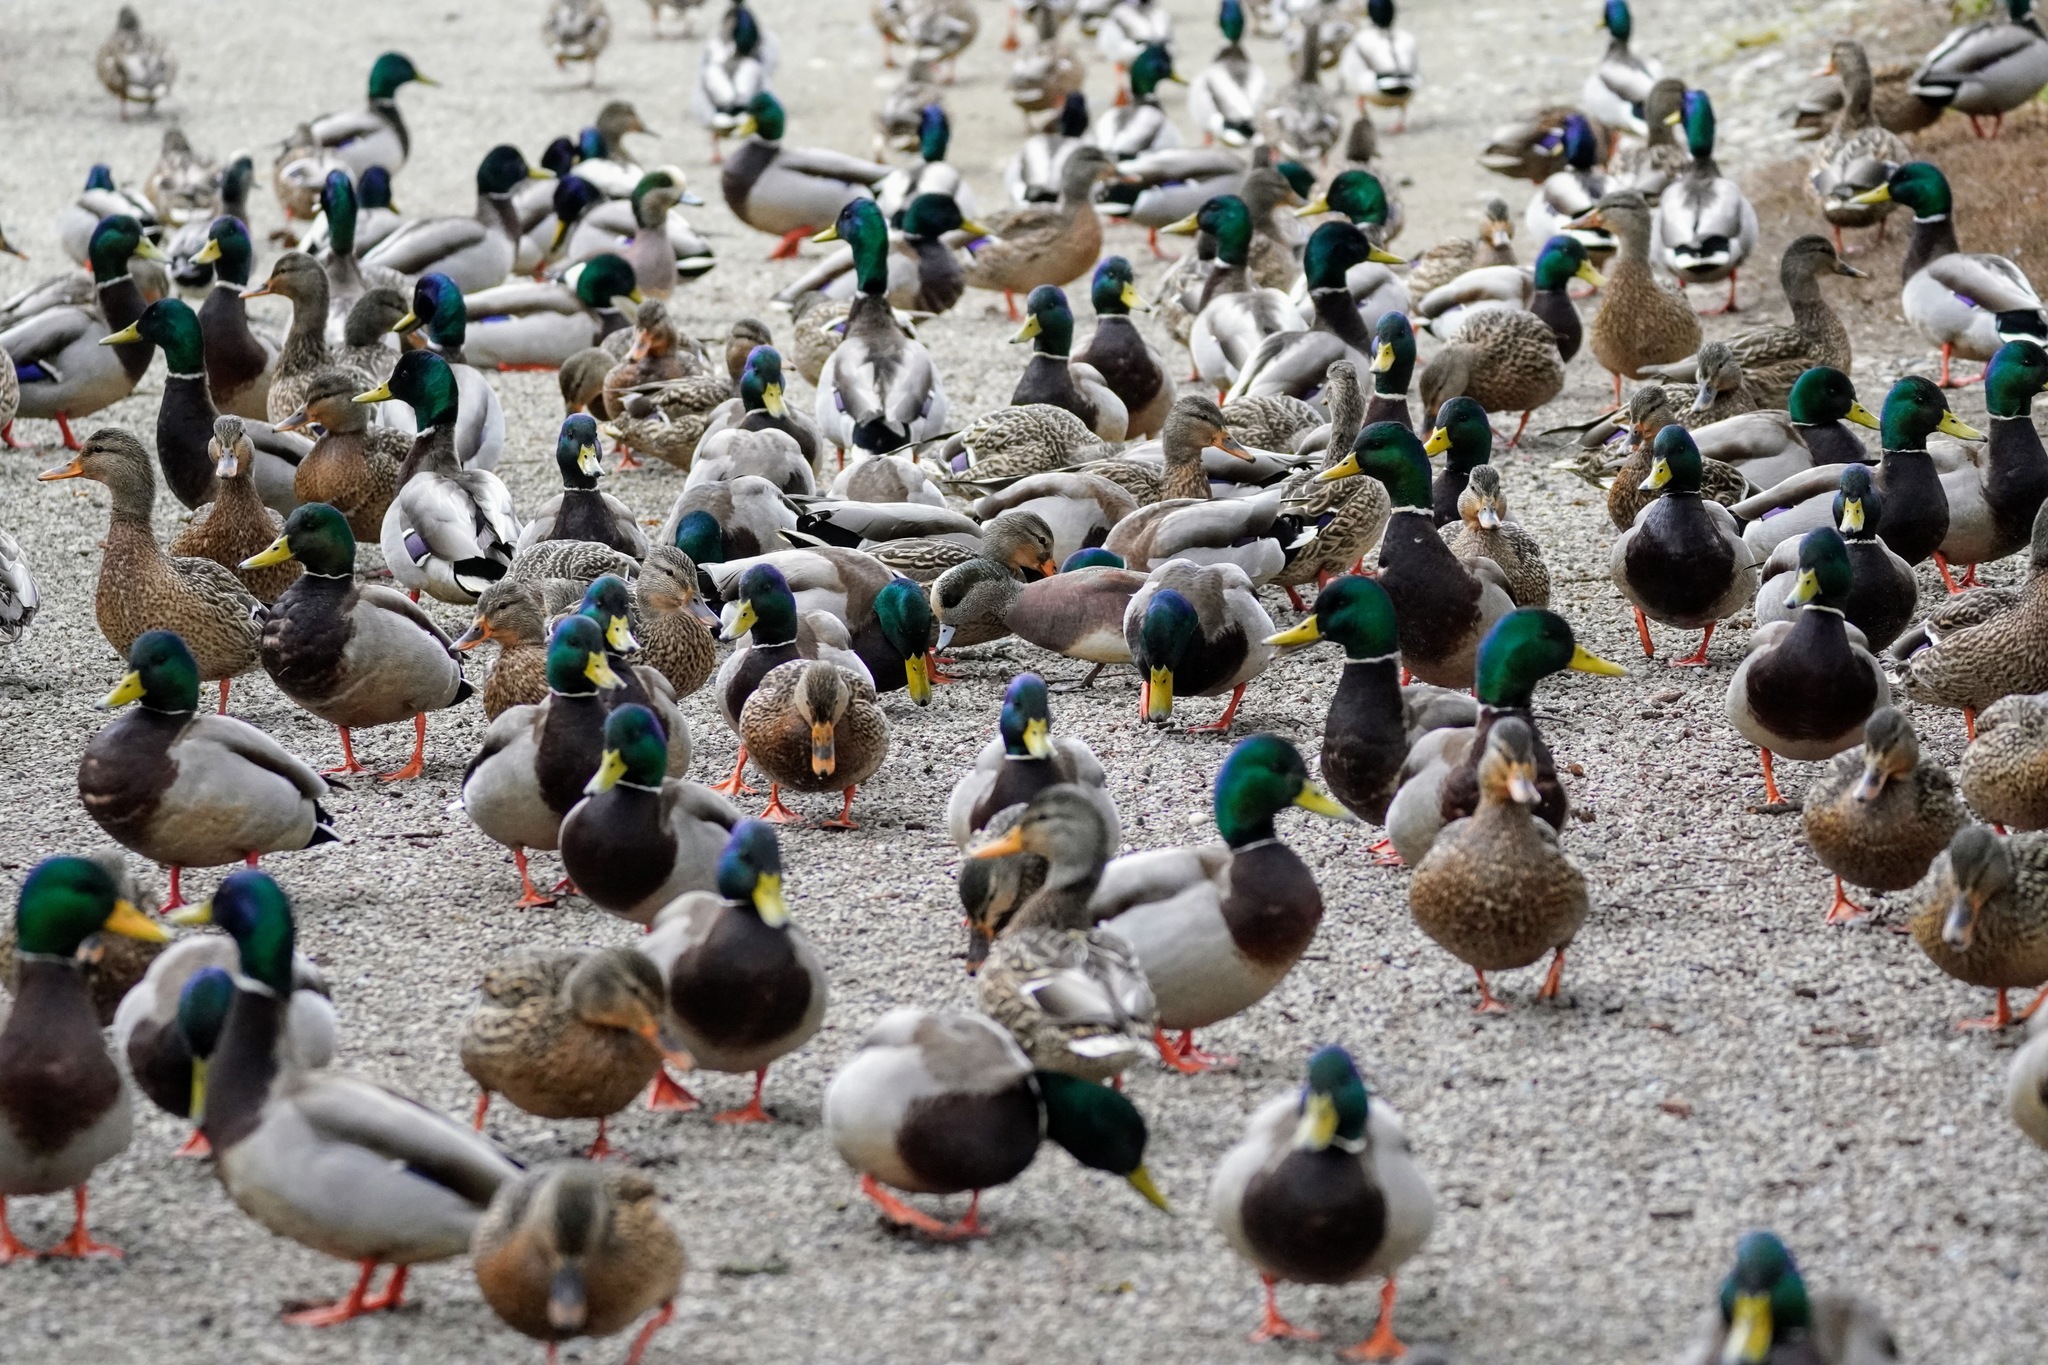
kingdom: Animalia
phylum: Chordata
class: Aves
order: Anseriformes
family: Anatidae
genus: Anas
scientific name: Anas platyrhynchos
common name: Mallard
